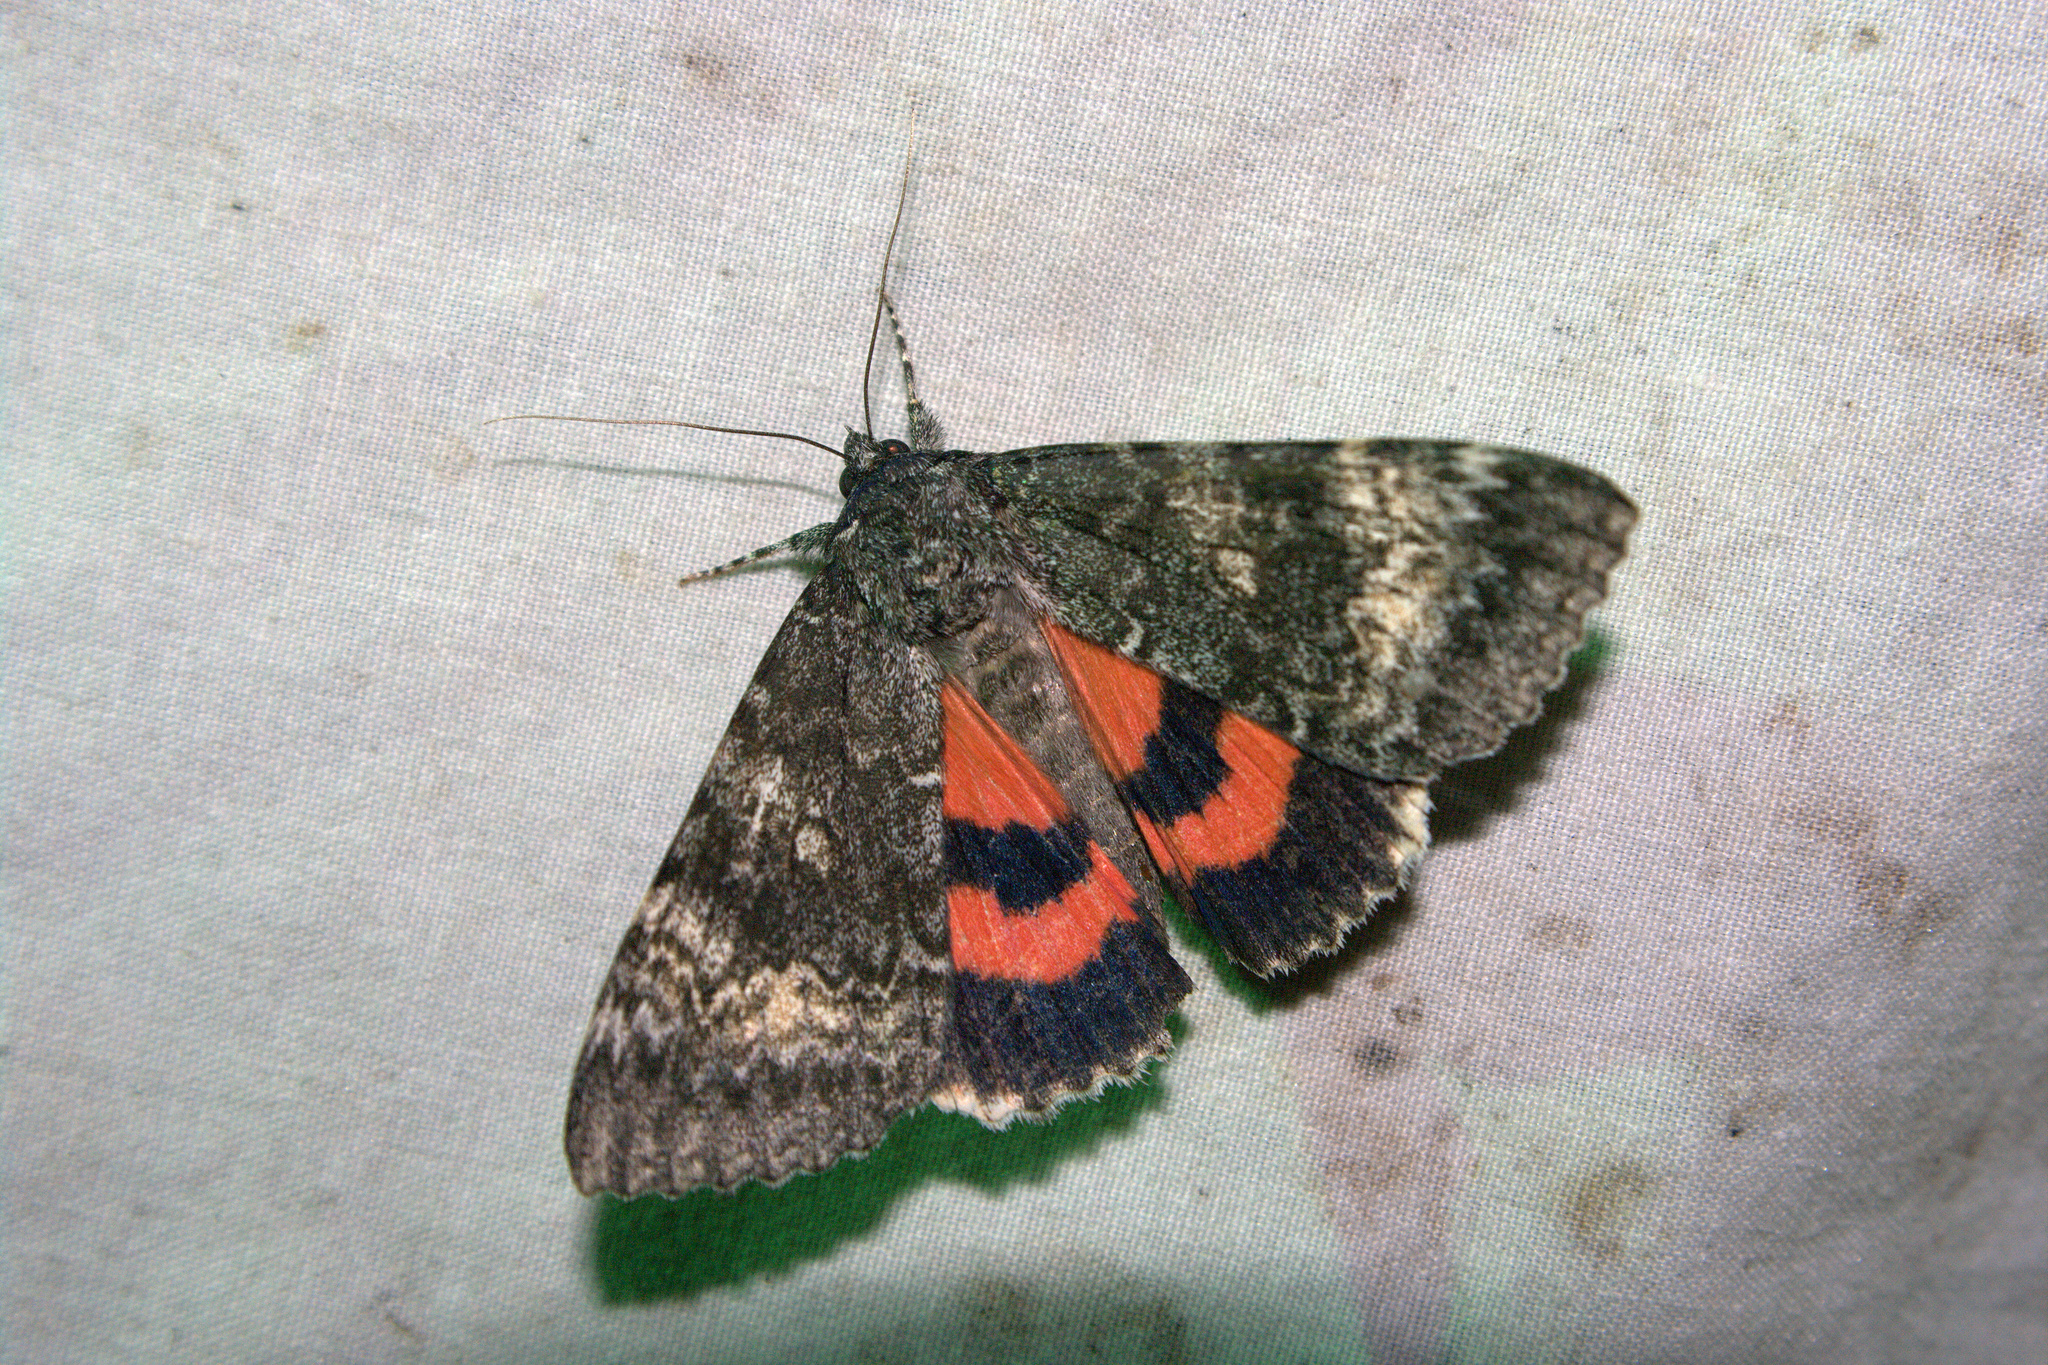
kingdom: Animalia
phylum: Arthropoda
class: Insecta
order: Lepidoptera
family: Erebidae
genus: Catocala
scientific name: Catocala briseis
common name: Briseis underwing
